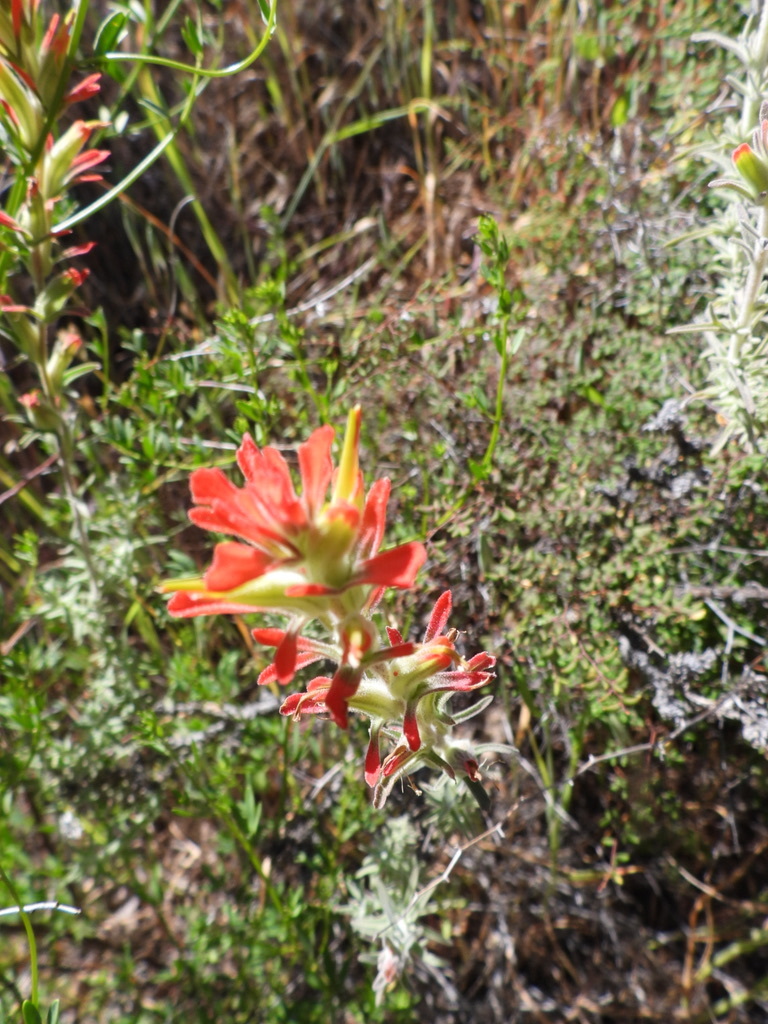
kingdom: Plantae
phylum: Tracheophyta
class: Magnoliopsida
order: Lamiales
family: Orobanchaceae
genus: Castilleja
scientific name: Castilleja foliolosa
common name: Woolly indian paintbrush
